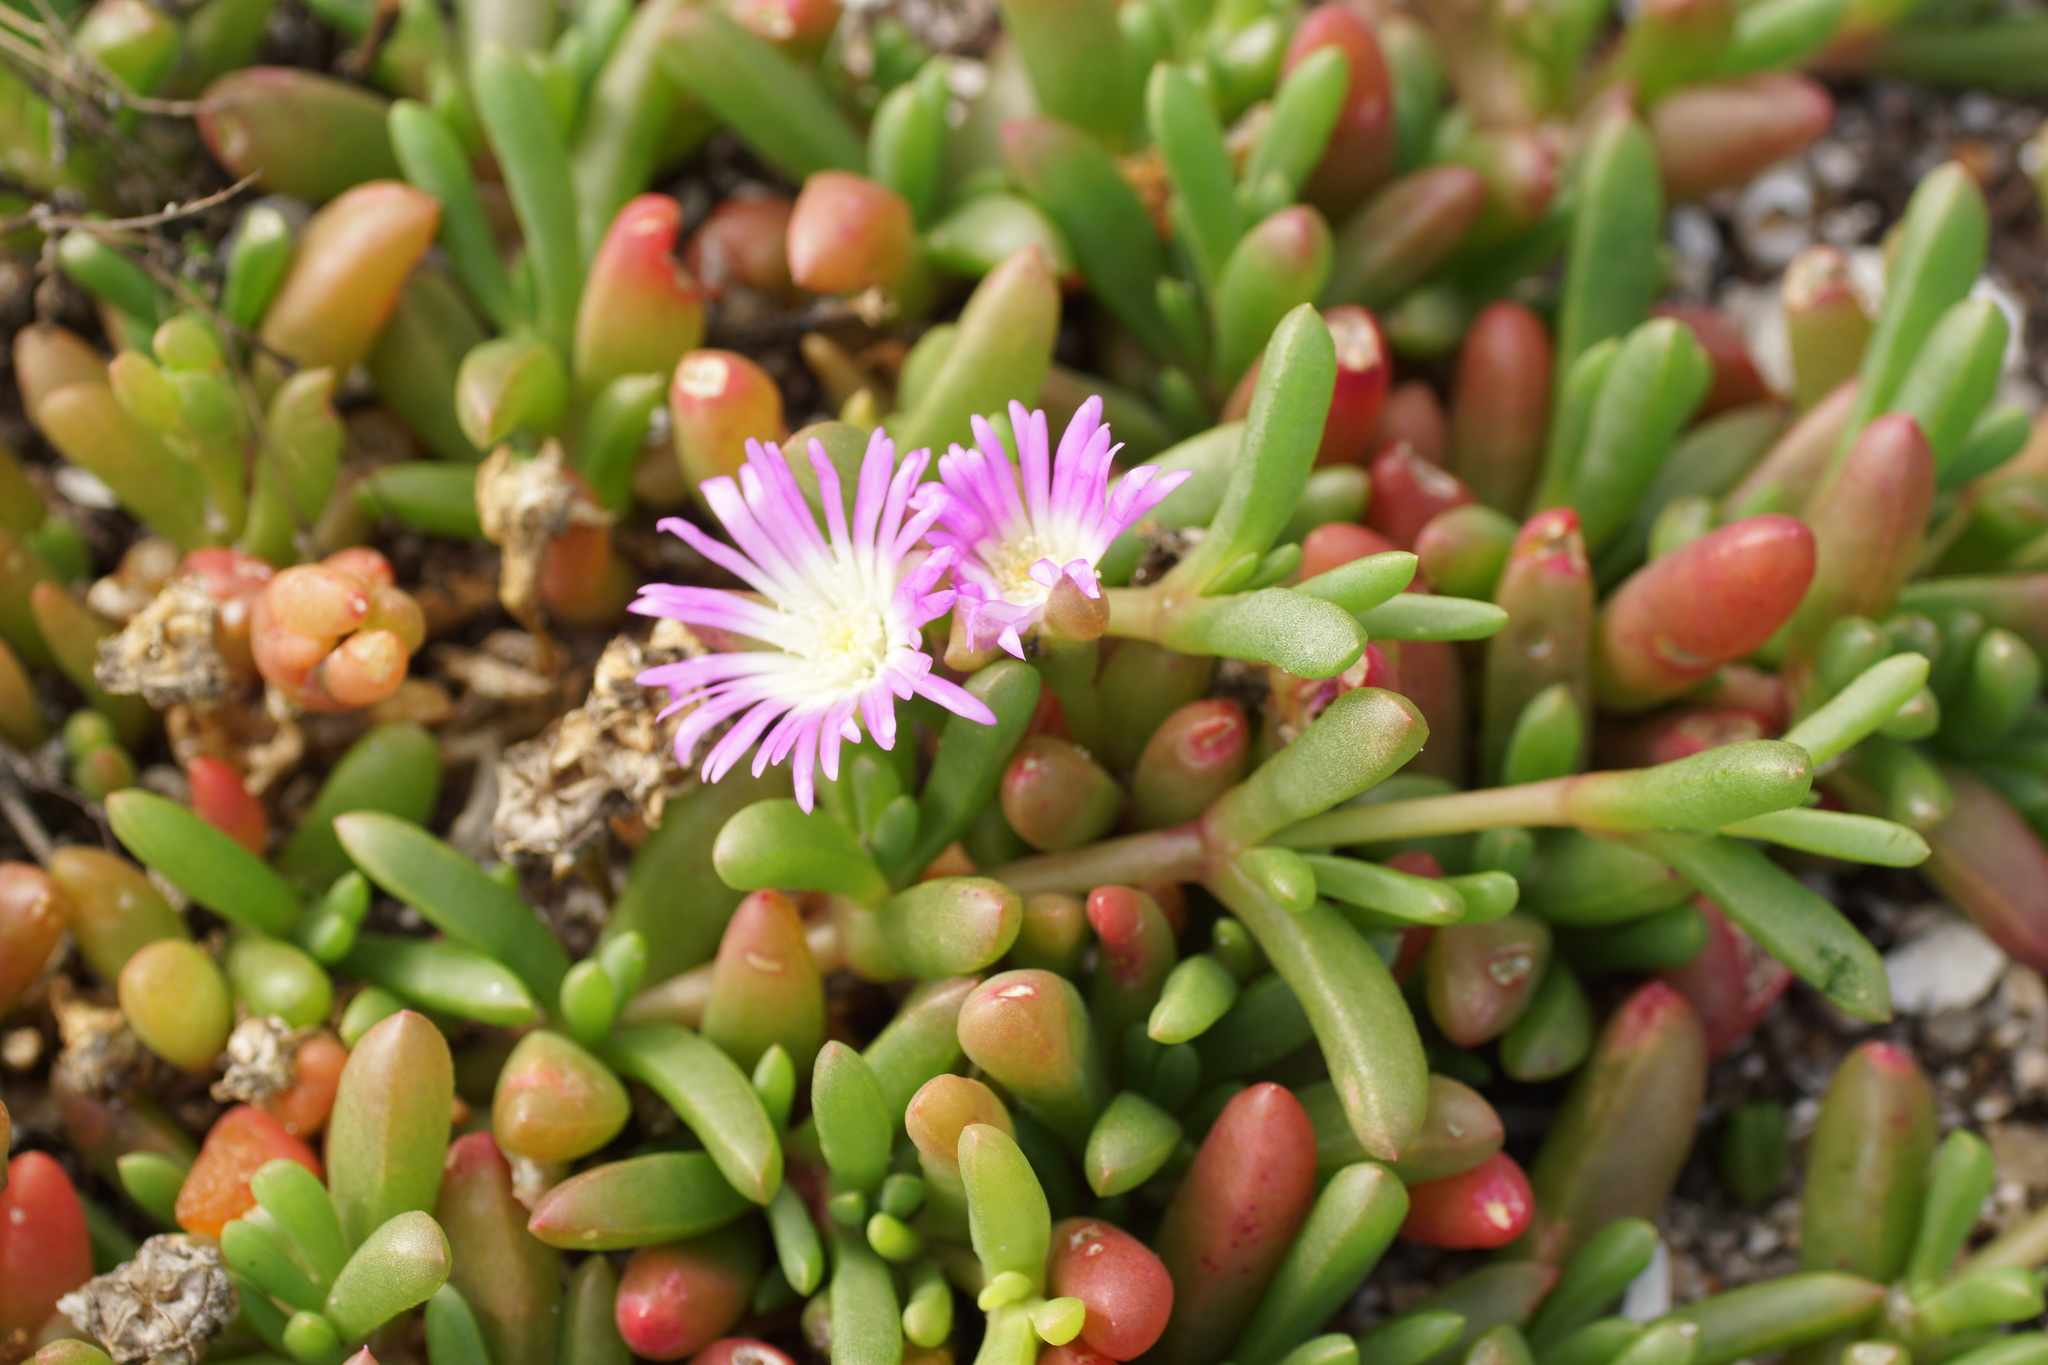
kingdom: Plantae
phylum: Tracheophyta
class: Magnoliopsida
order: Caryophyllales
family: Aizoaceae
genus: Disphyma
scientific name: Disphyma clavellatum
